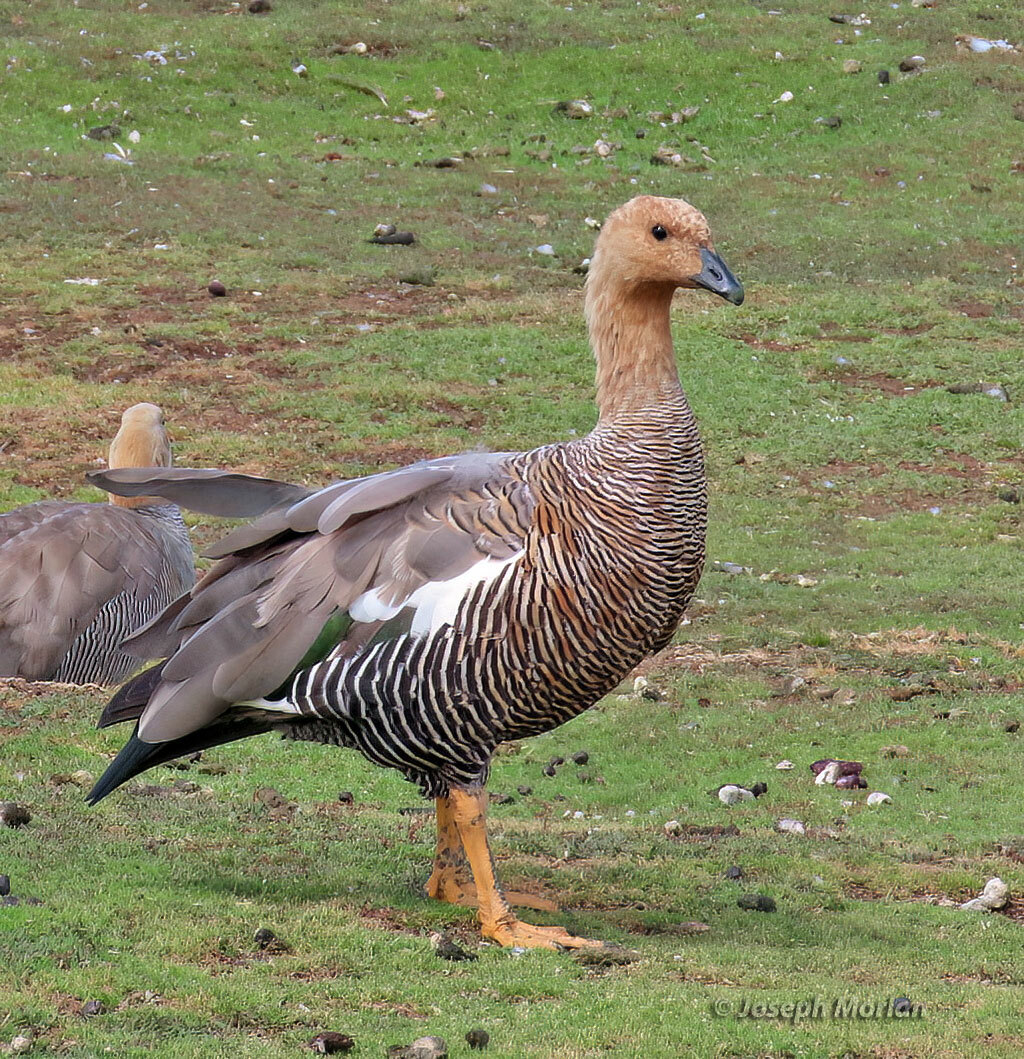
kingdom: Animalia
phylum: Chordata
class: Aves
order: Anseriformes
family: Anatidae
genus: Chloephaga
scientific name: Chloephaga picta
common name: Upland goose
